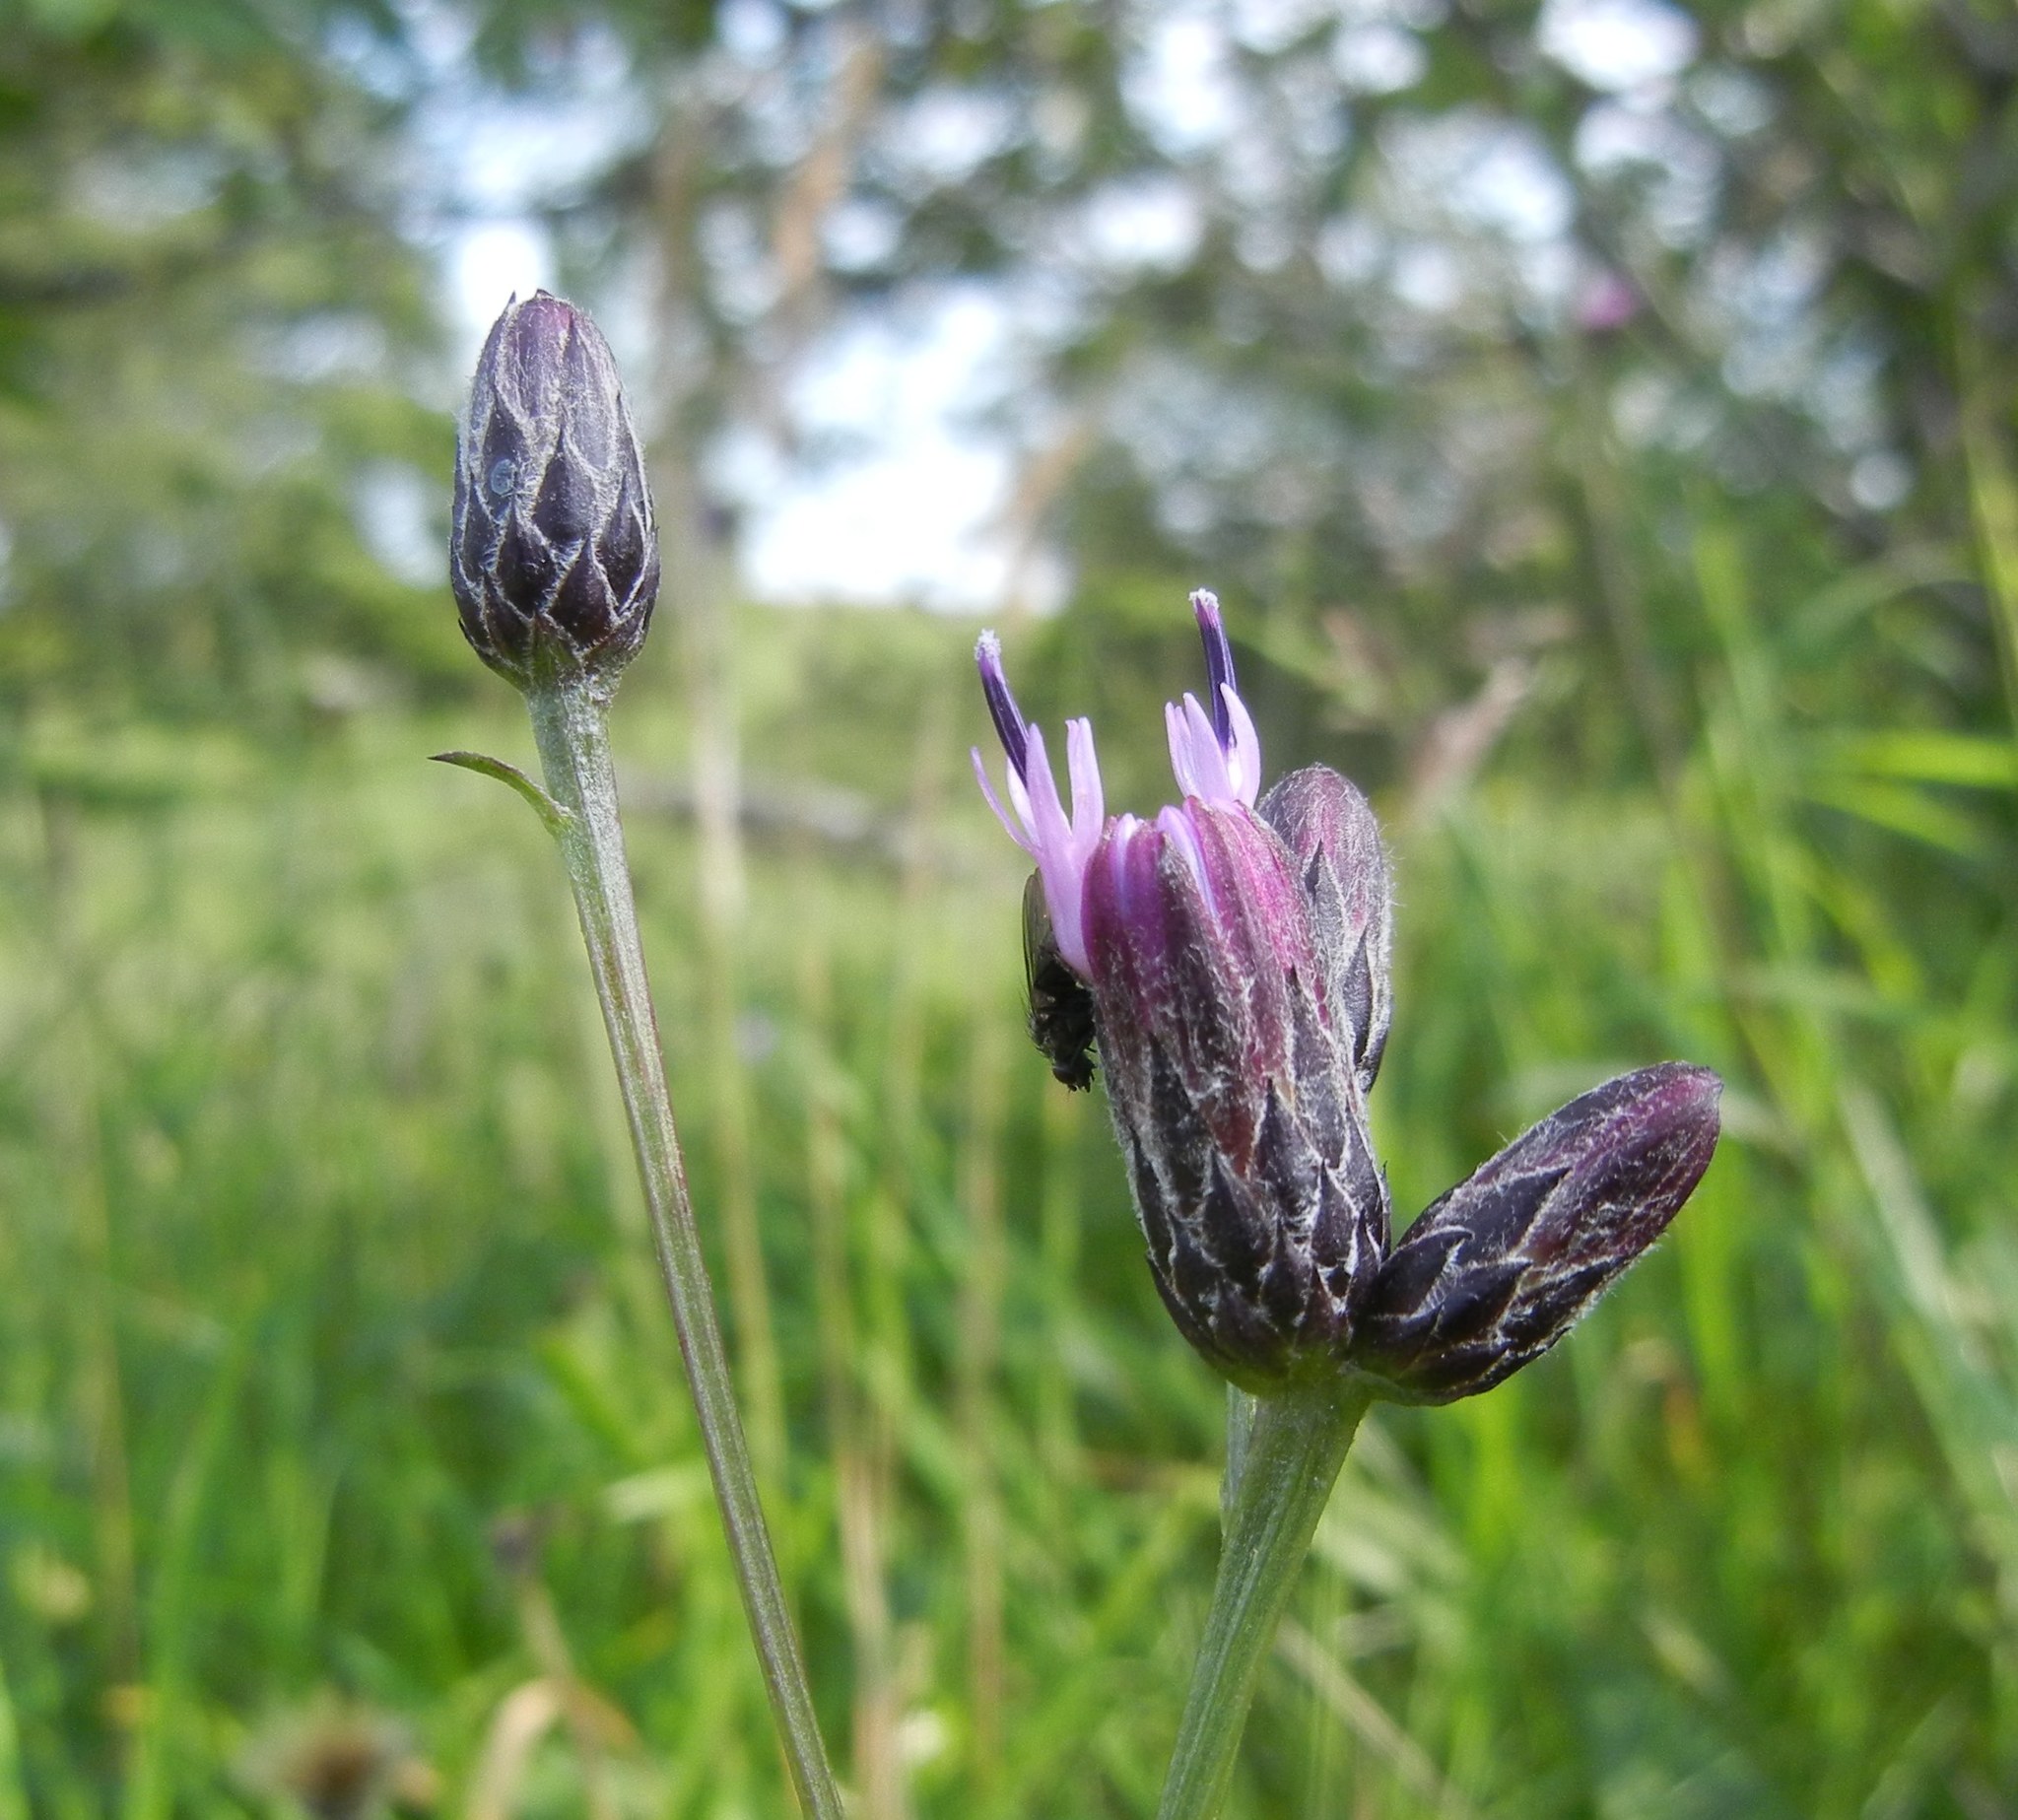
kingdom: Plantae
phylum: Tracheophyta
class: Magnoliopsida
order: Asterales
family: Asteraceae
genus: Serratula
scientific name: Serratula tinctoria
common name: Saw-wort
